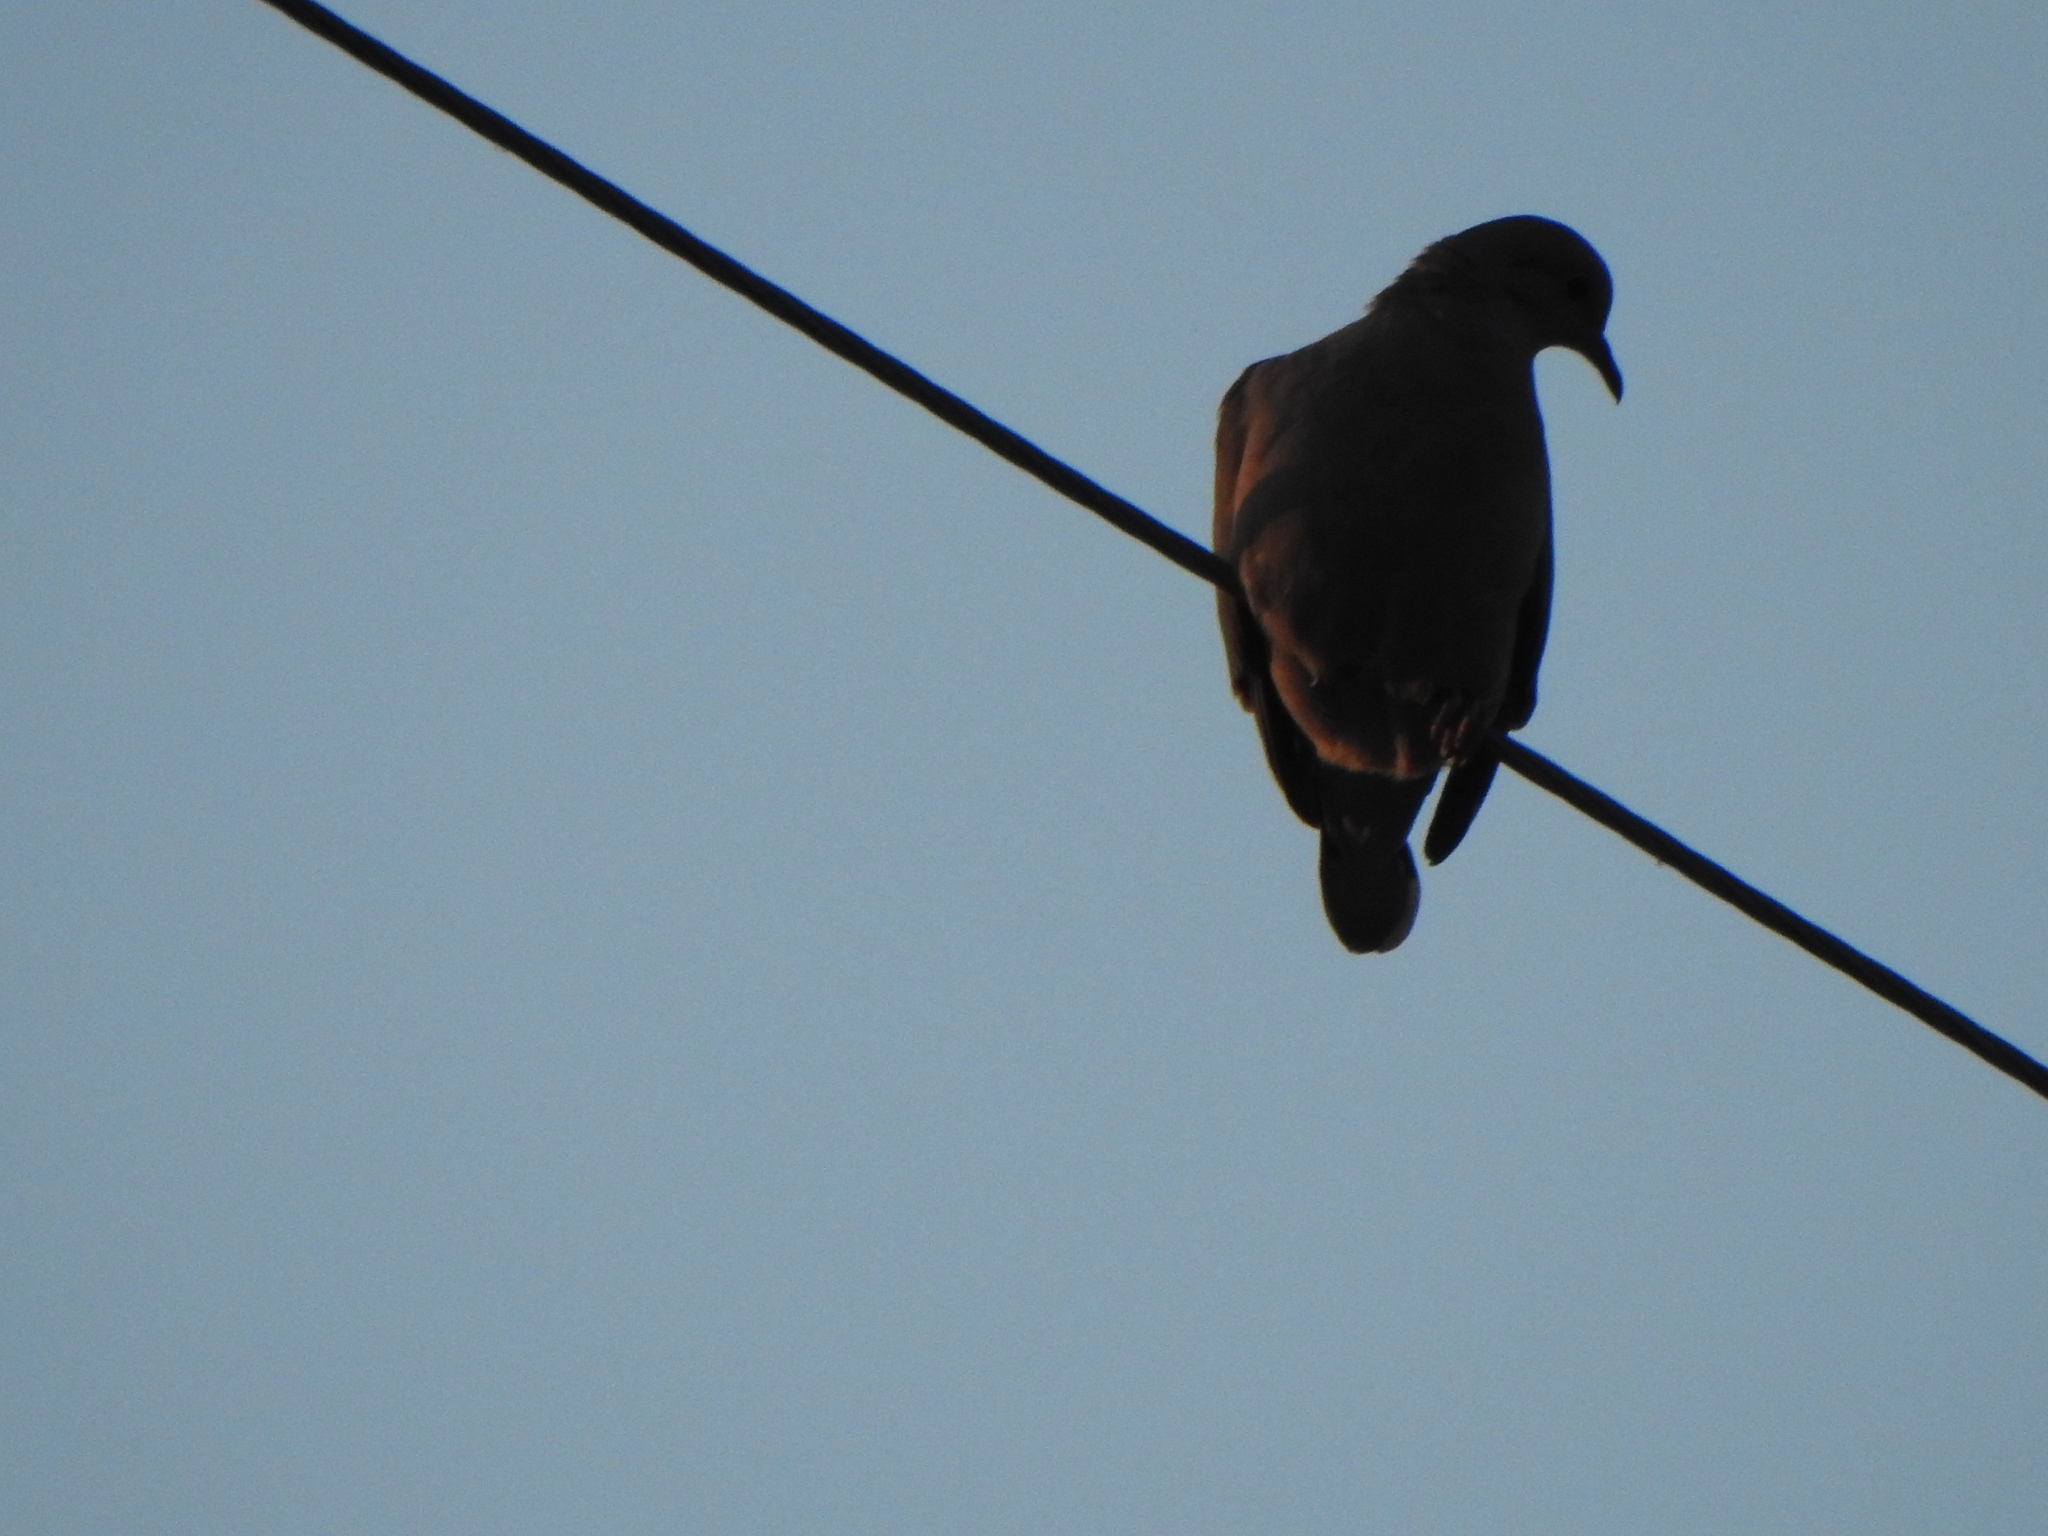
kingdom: Animalia
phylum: Chordata
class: Aves
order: Columbiformes
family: Columbidae
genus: Zenaida
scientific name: Zenaida auriculata
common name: Eared dove
